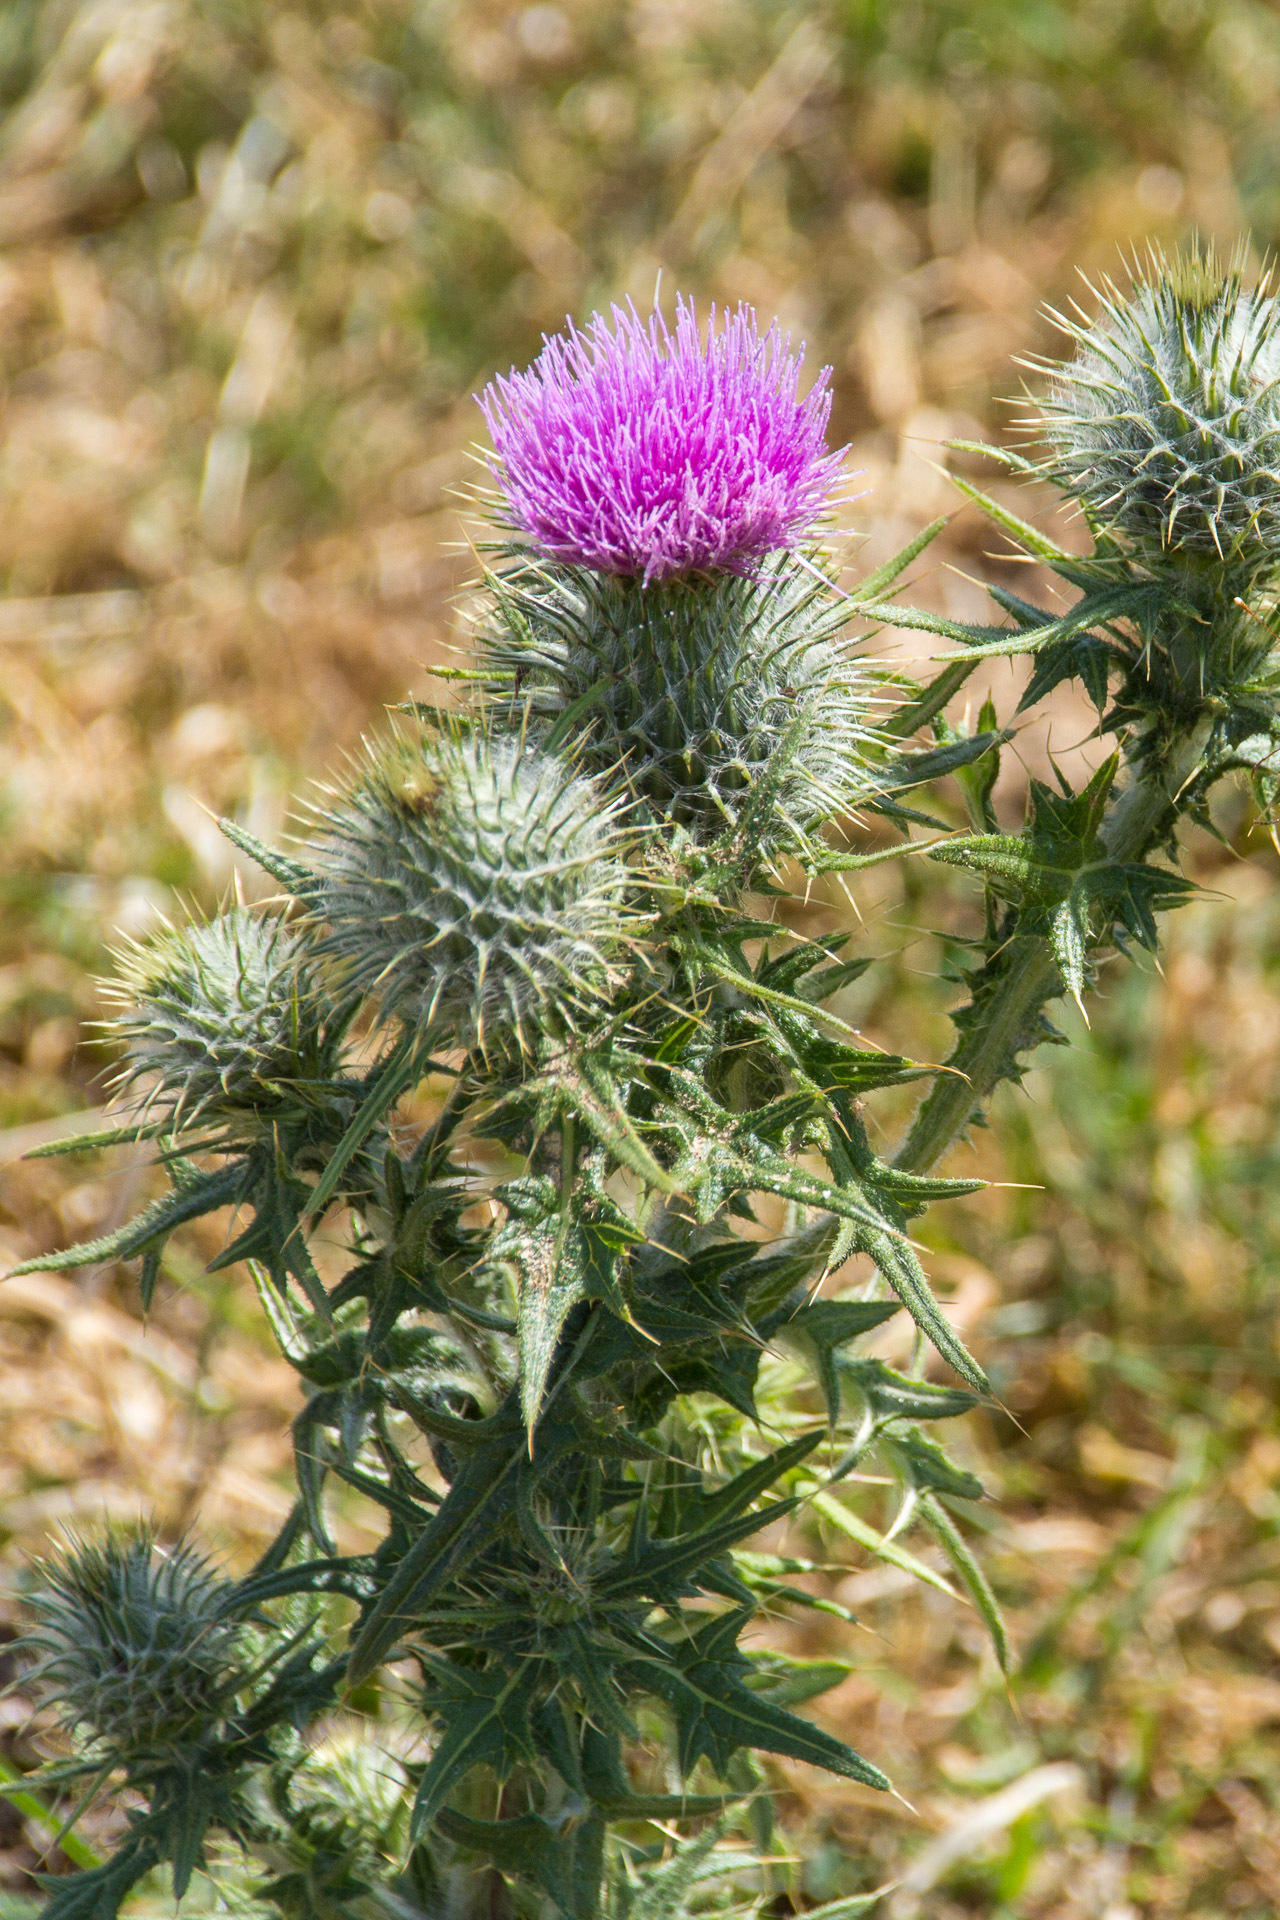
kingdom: Plantae
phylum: Tracheophyta
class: Magnoliopsida
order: Asterales
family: Asteraceae
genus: Cirsium
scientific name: Cirsium vulgare
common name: Bull thistle
